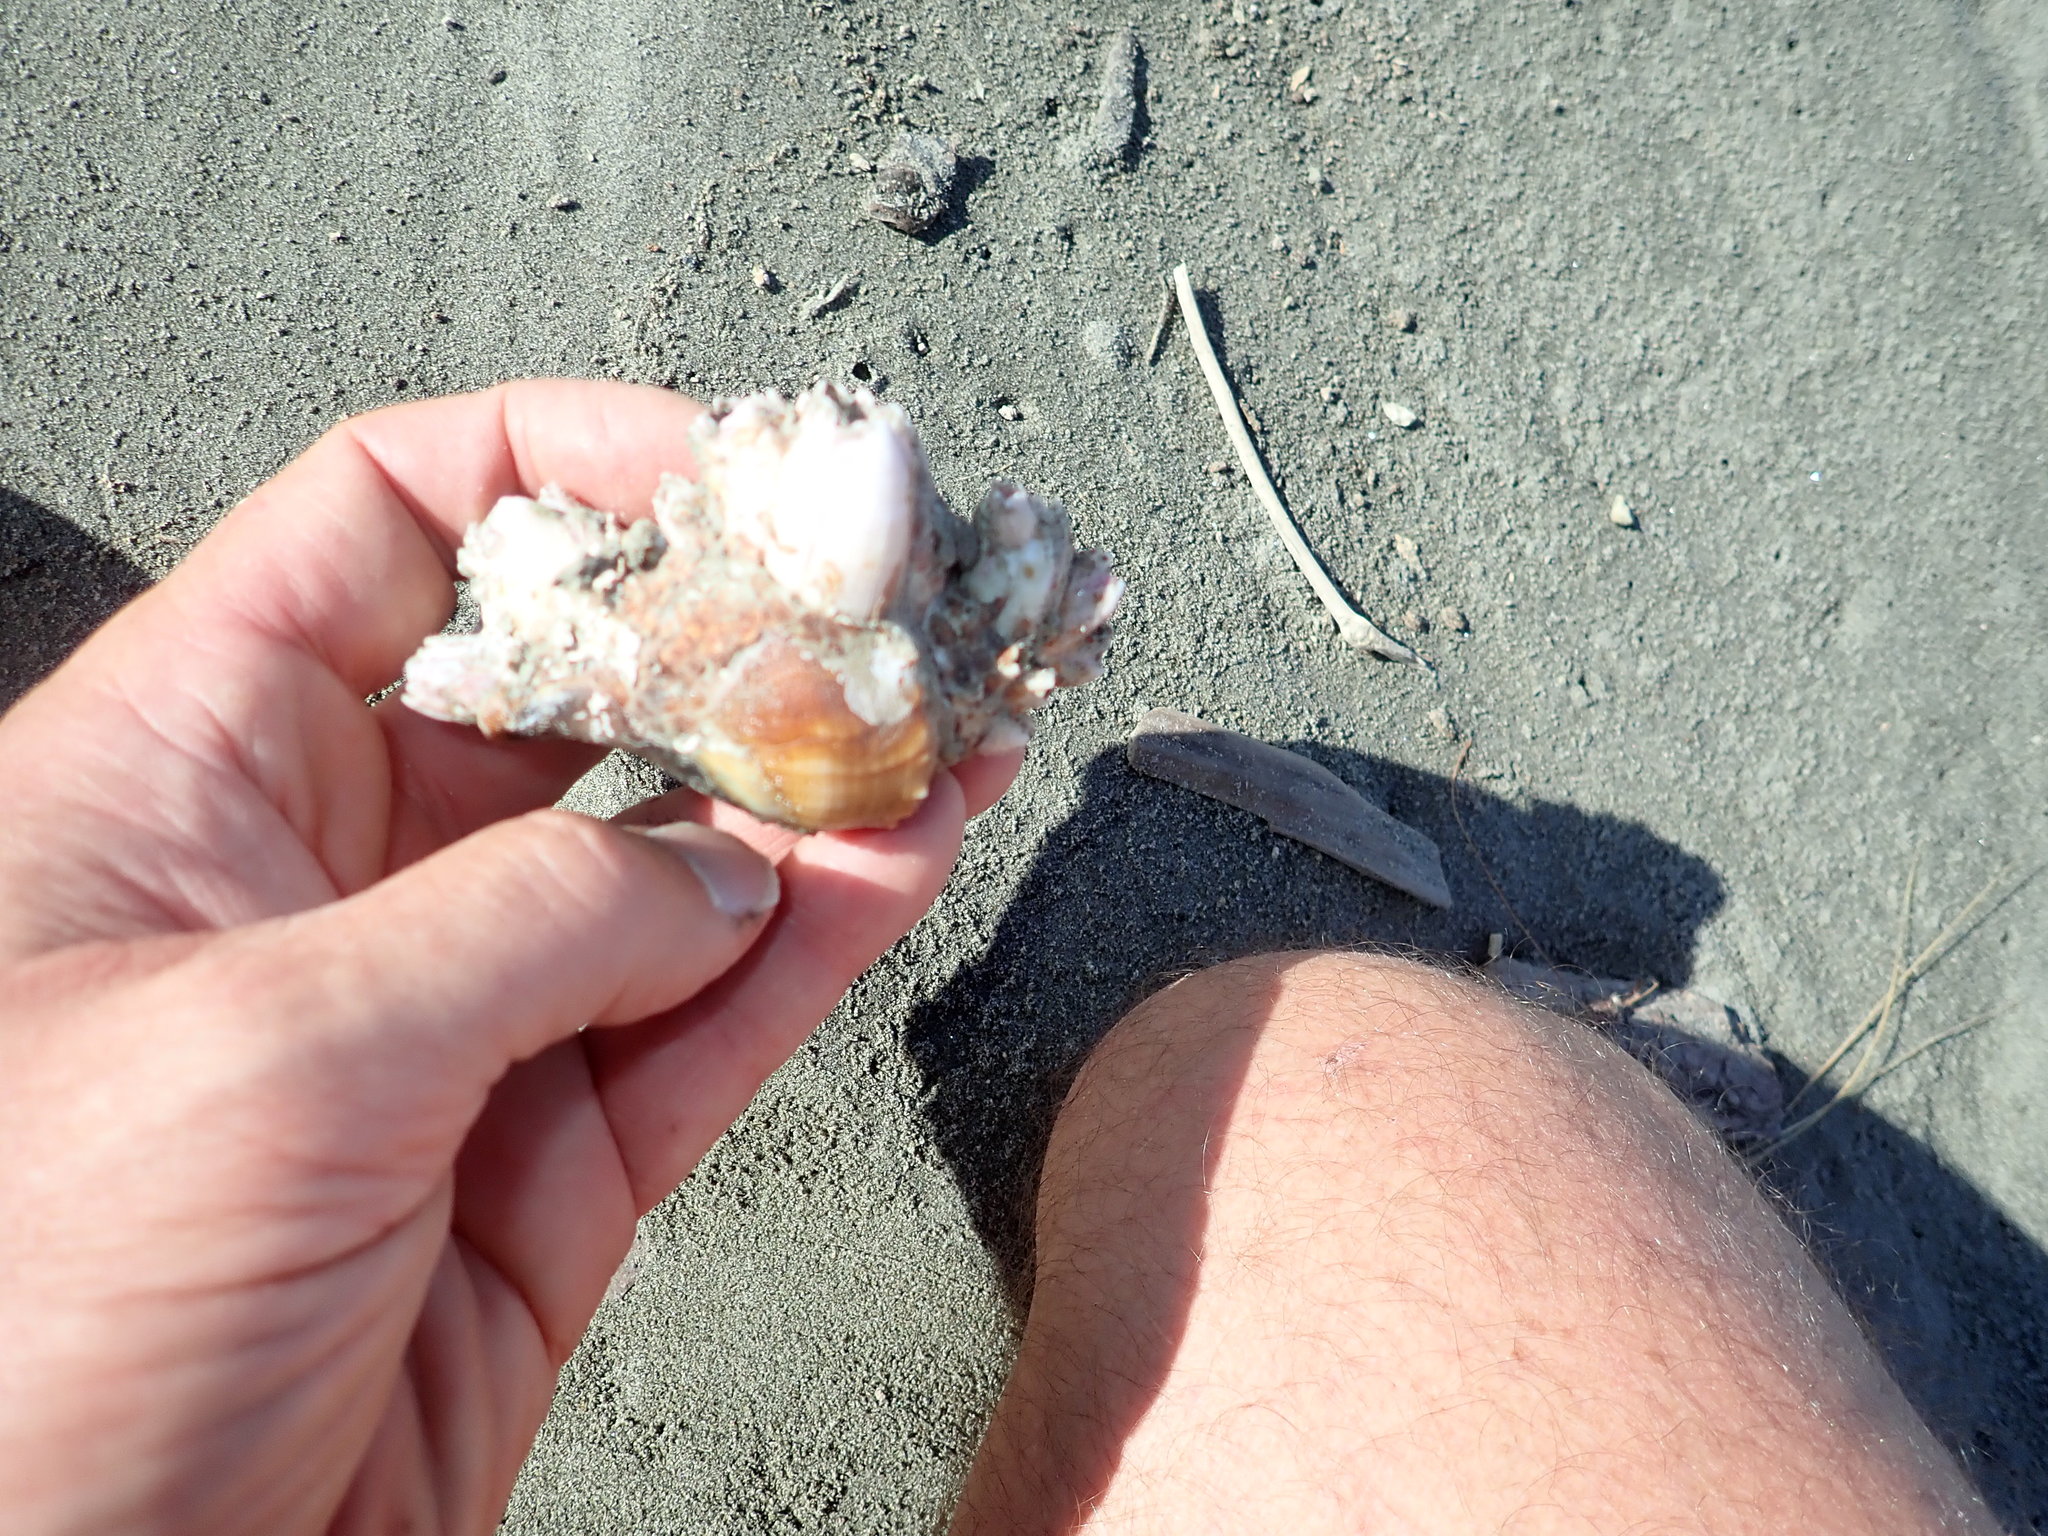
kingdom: Animalia
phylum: Arthropoda
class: Maxillopoda
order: Sessilia
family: Balanidae
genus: Notomegabalanus
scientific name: Notomegabalanus decorus
